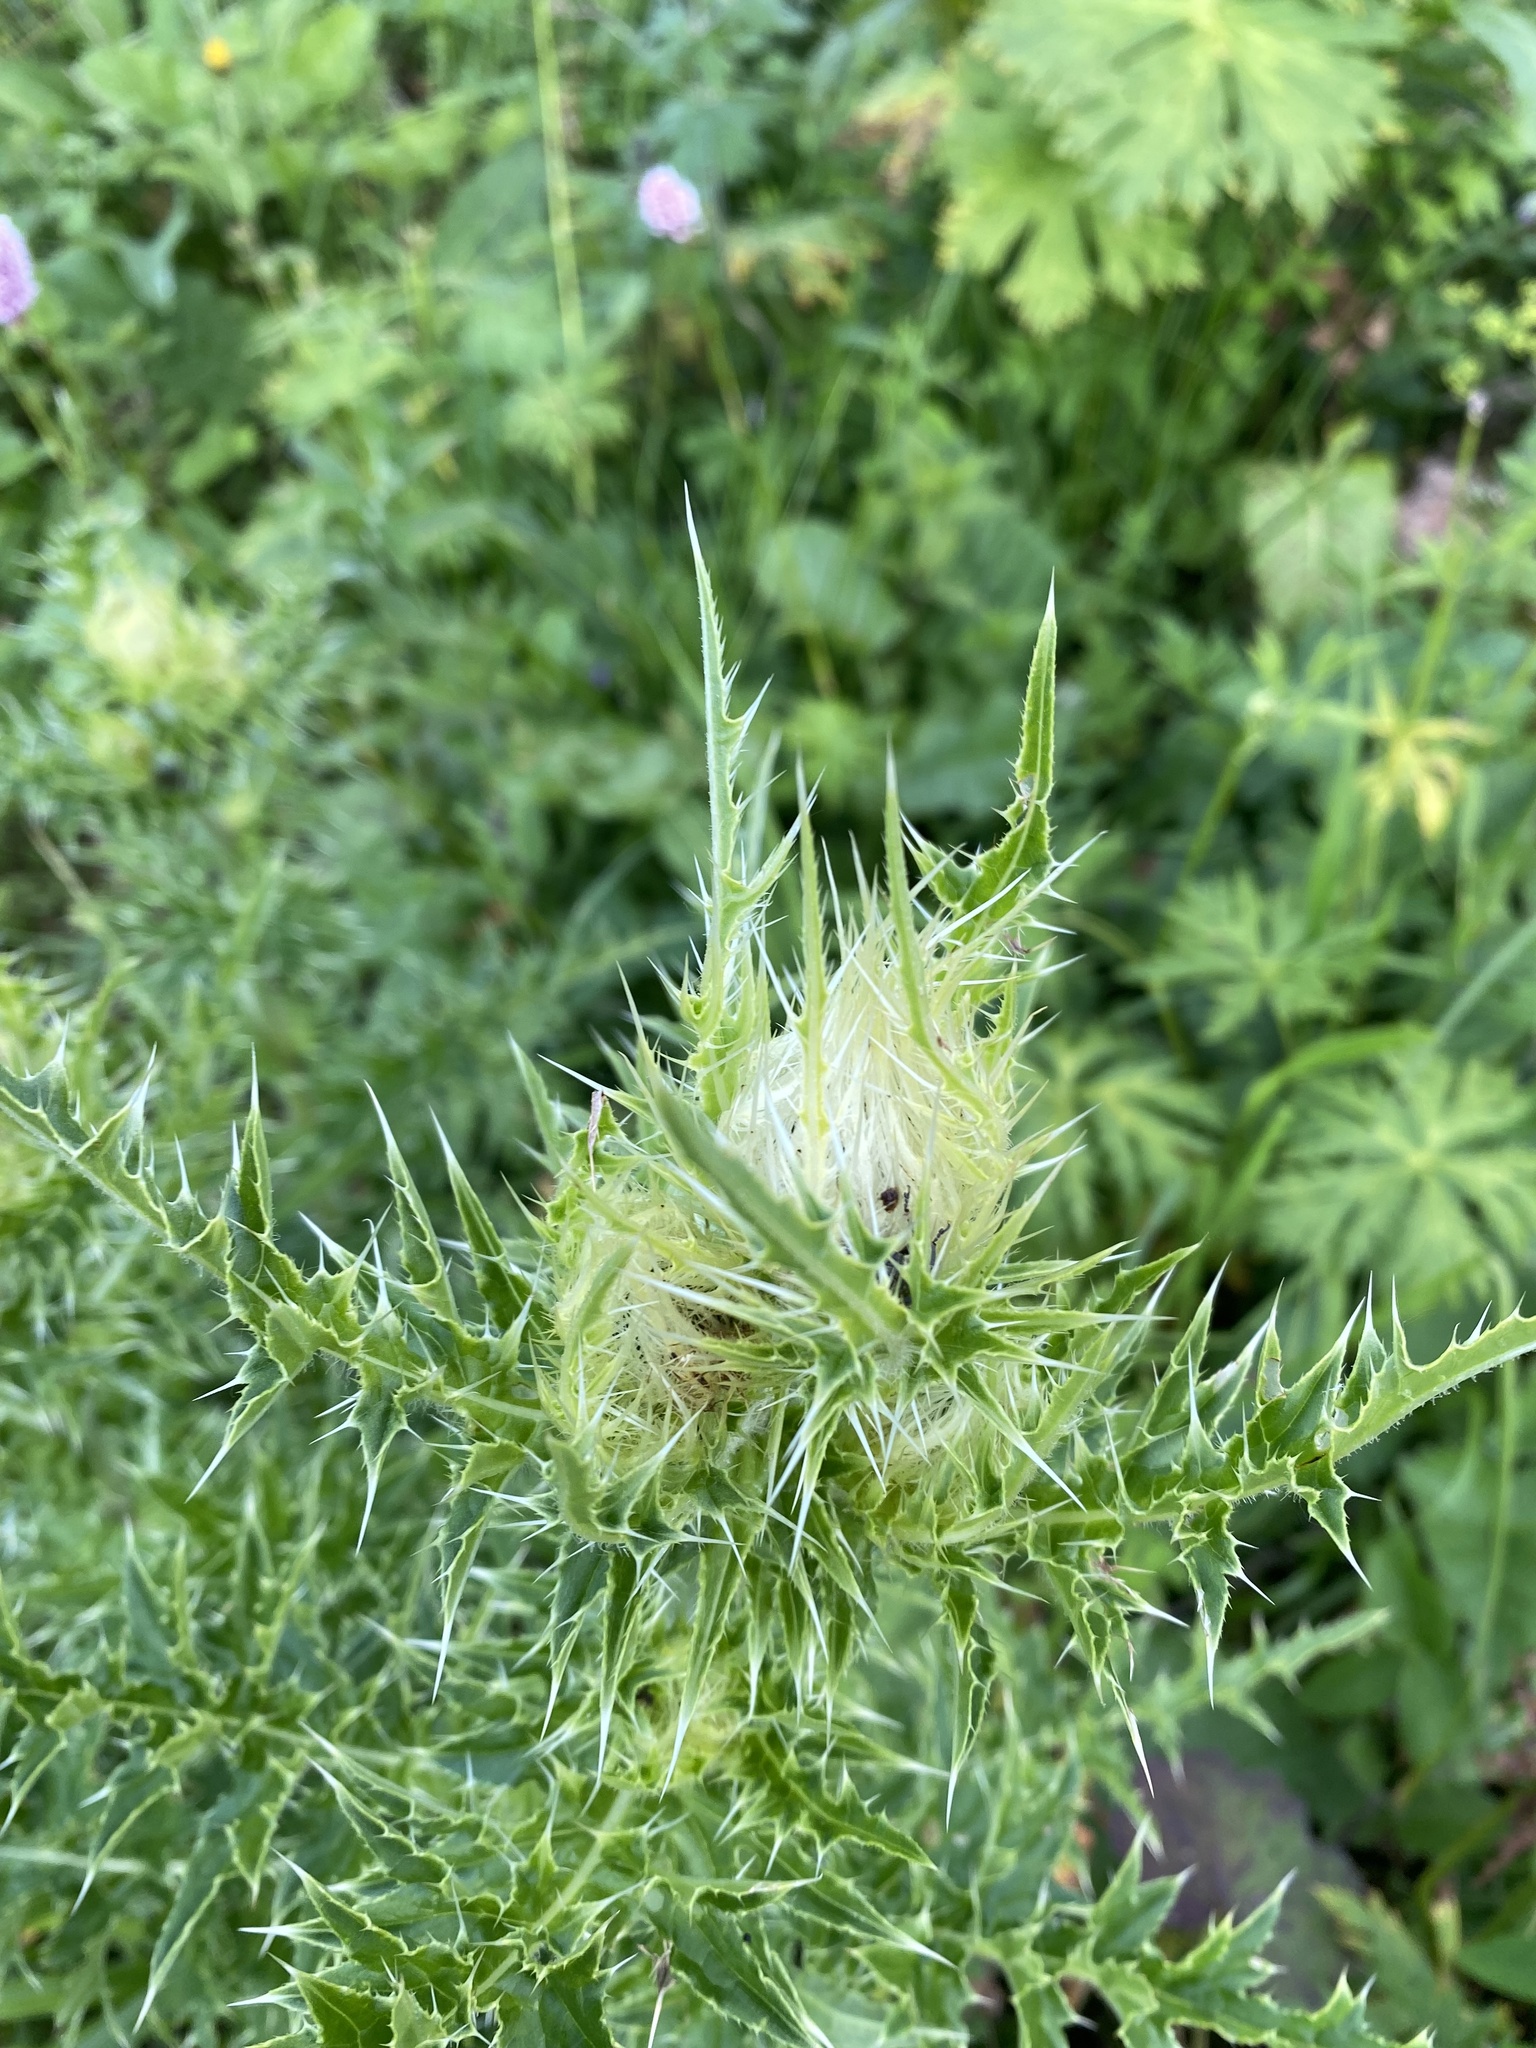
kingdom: Plantae
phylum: Tracheophyta
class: Magnoliopsida
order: Asterales
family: Asteraceae
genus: Cirsium
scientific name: Cirsium obvallatum
